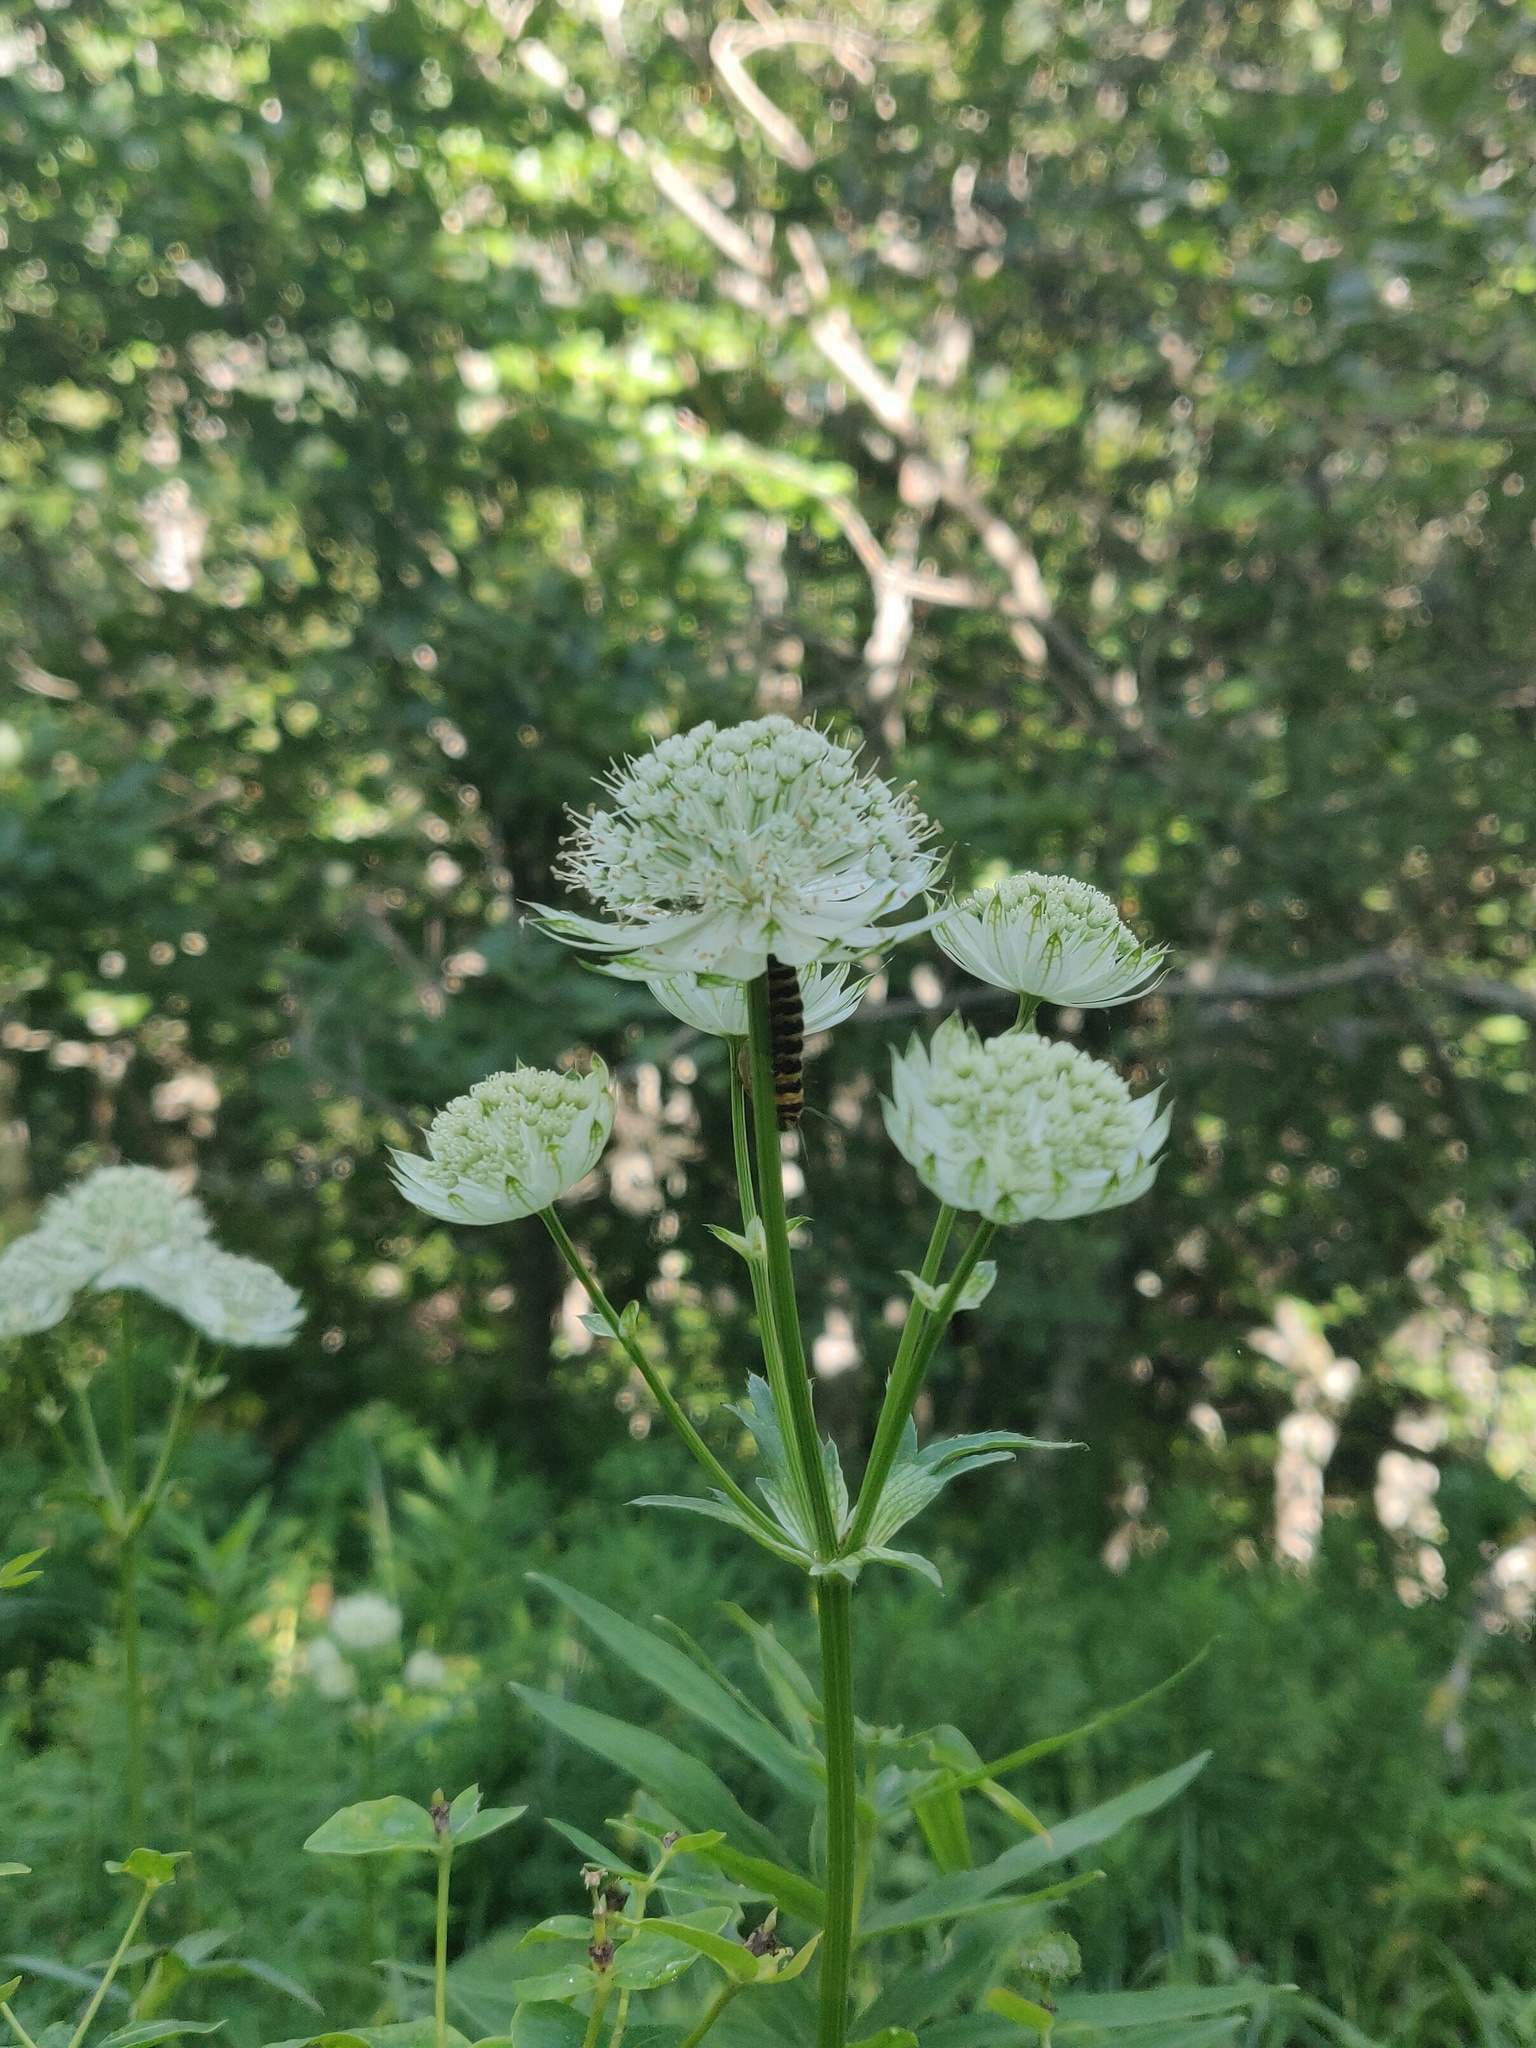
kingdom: Animalia
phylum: Arthropoda
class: Insecta
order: Lepidoptera
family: Erebidae
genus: Tyria
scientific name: Tyria jacobaeae
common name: Cinnabar
